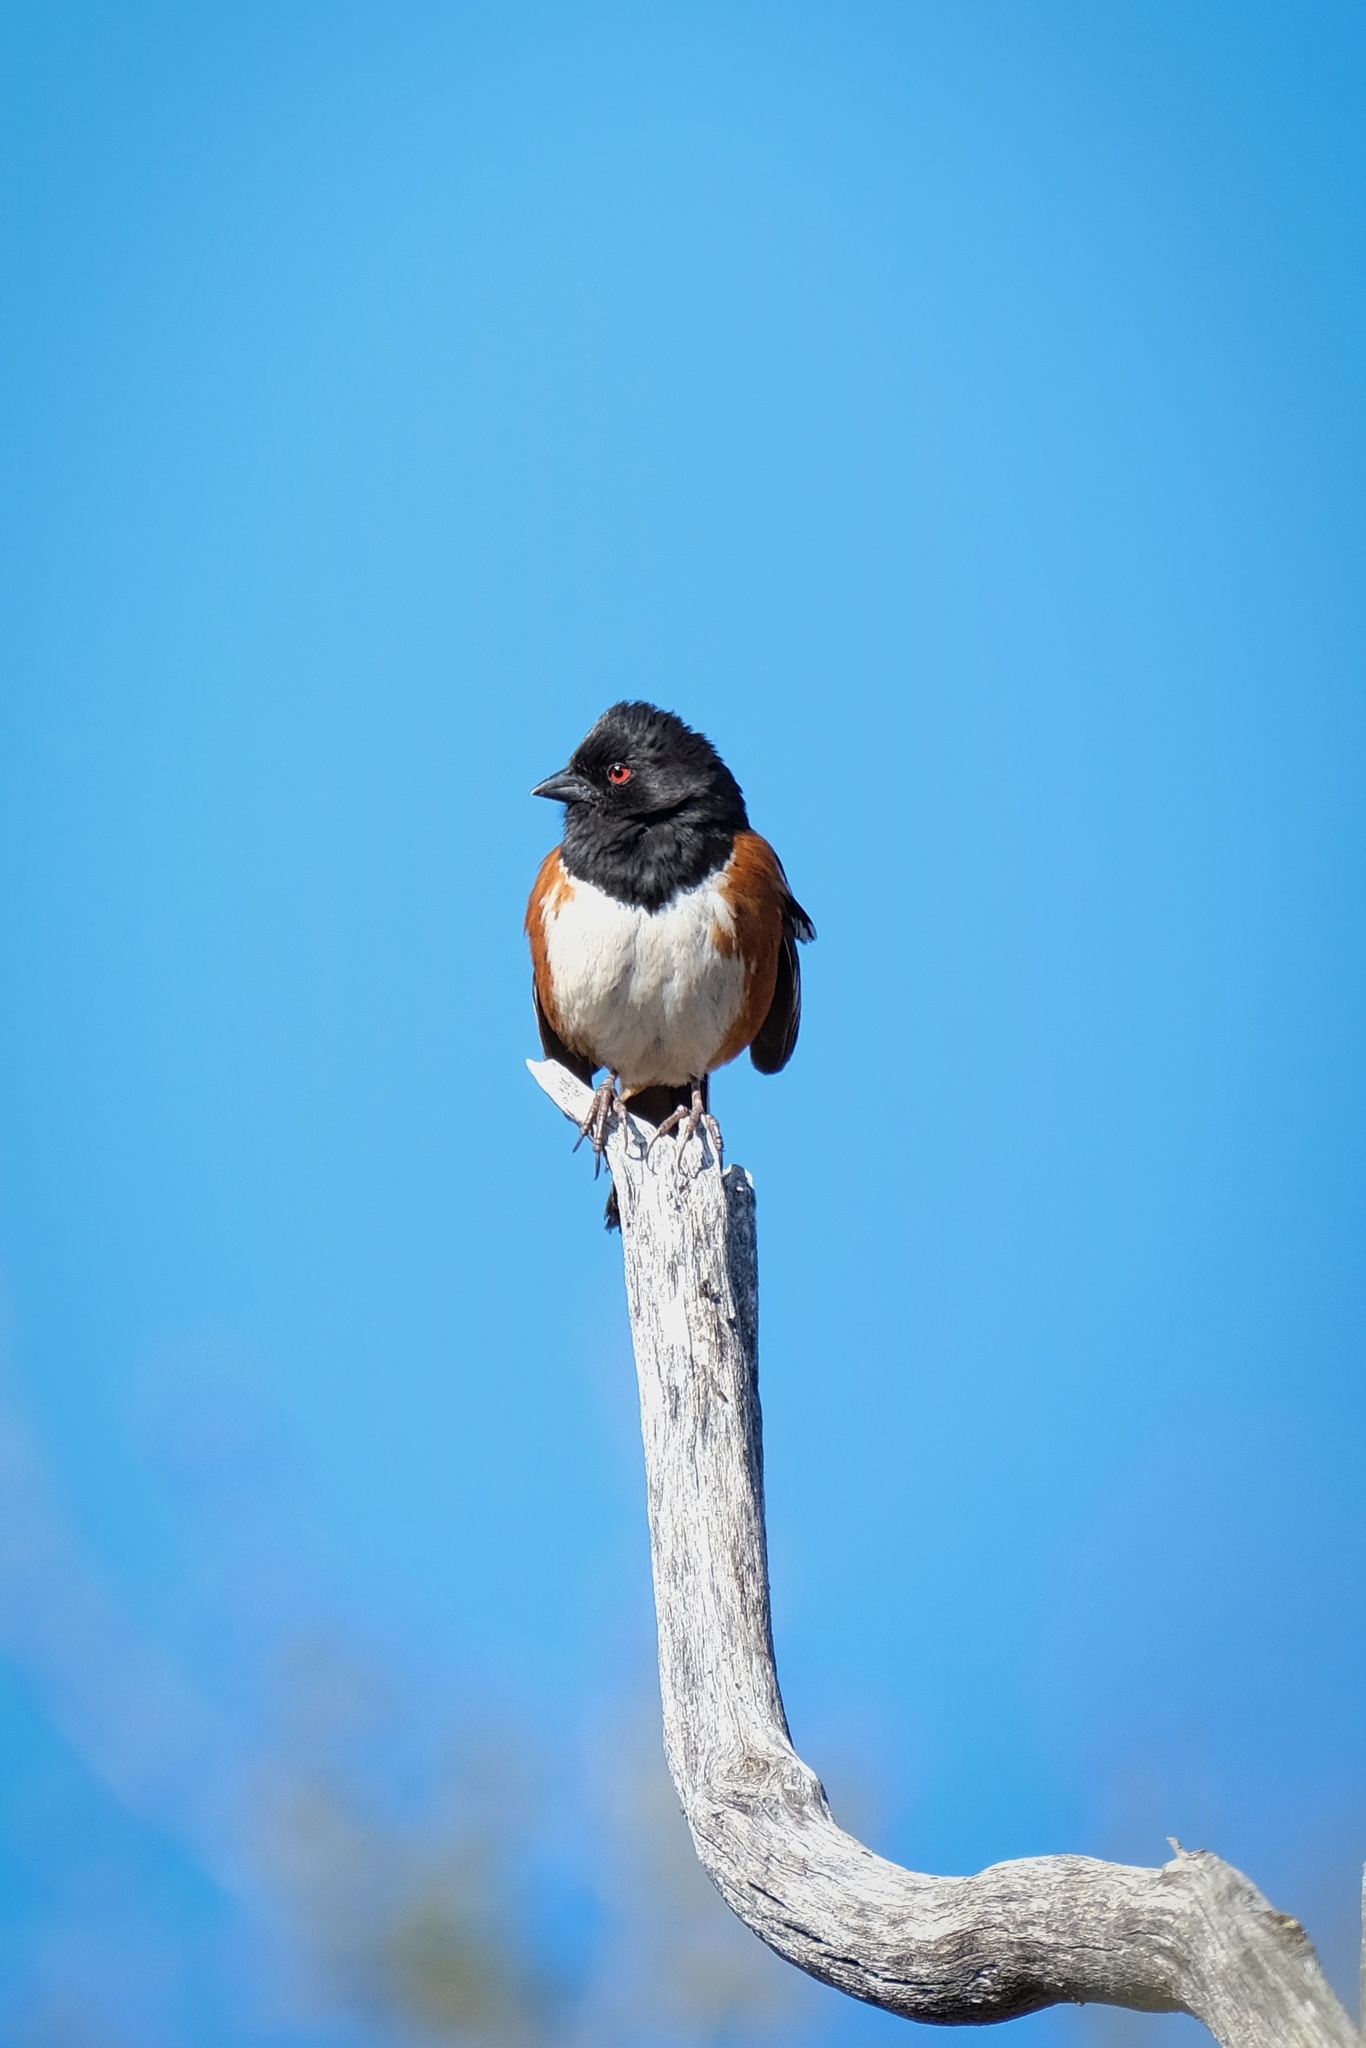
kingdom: Animalia
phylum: Chordata
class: Aves
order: Passeriformes
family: Passerellidae
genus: Pipilo
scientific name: Pipilo maculatus
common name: Spotted towhee
